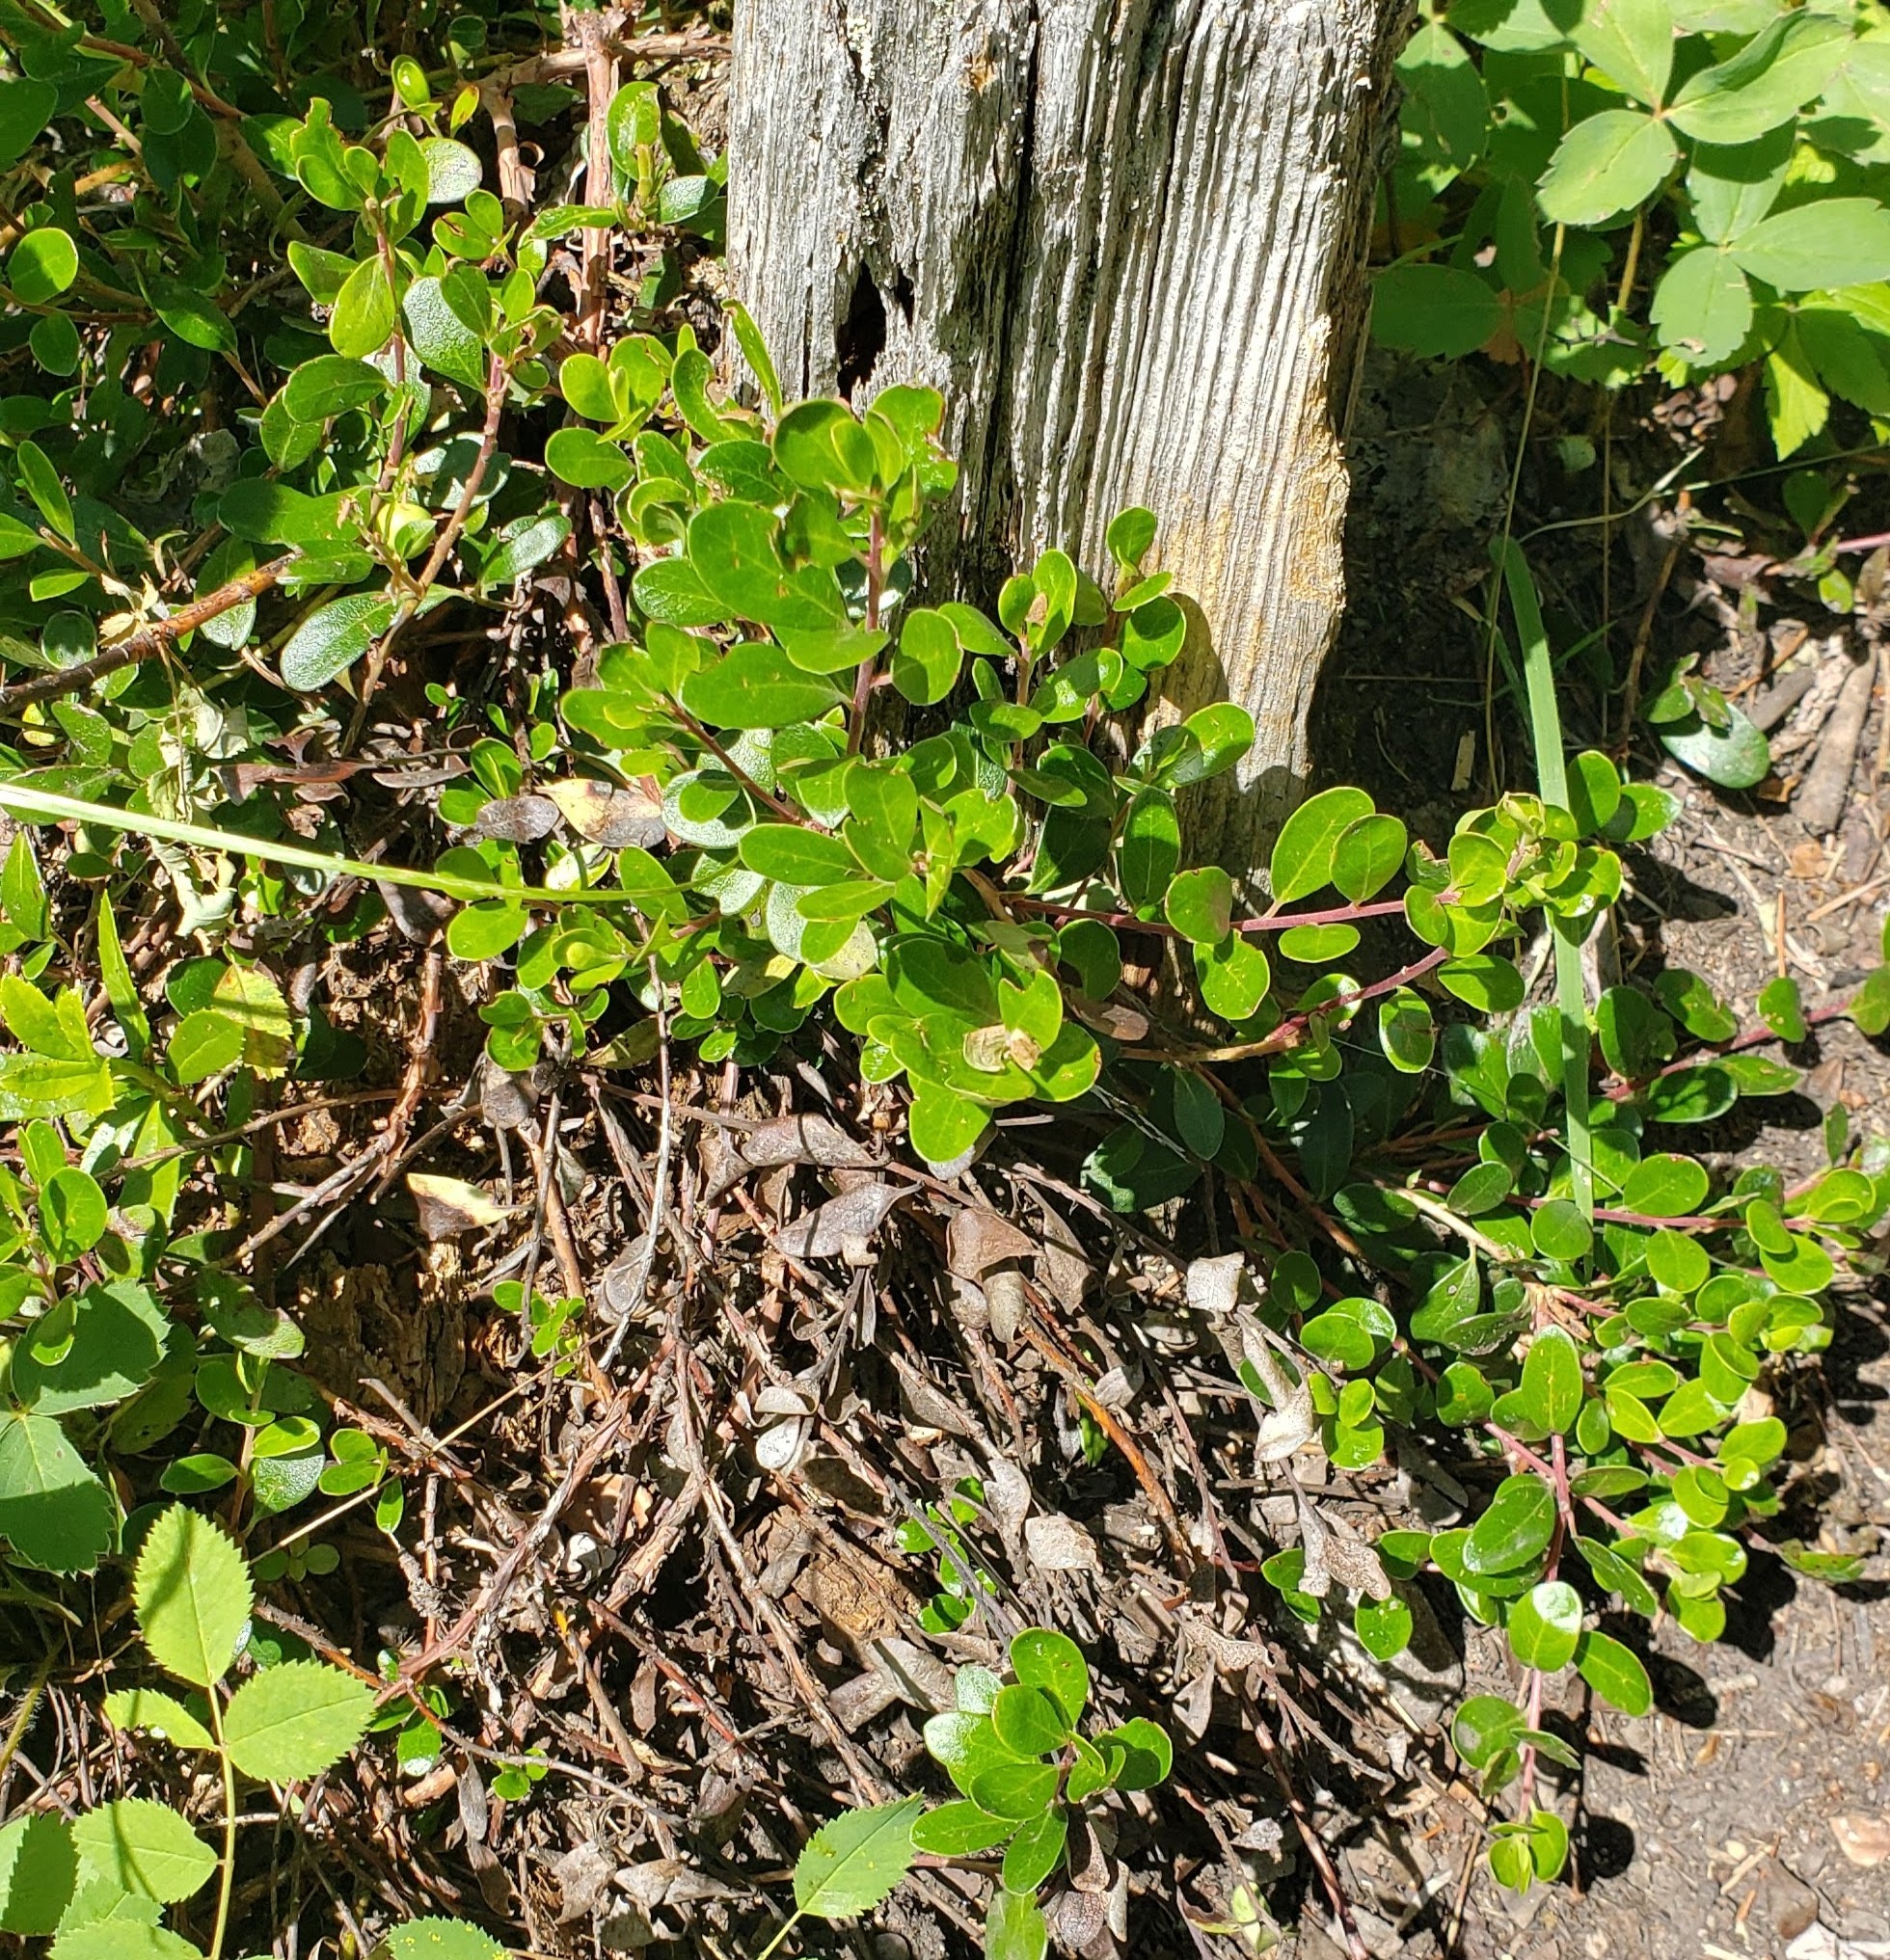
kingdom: Plantae
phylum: Tracheophyta
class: Magnoliopsida
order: Ericales
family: Ericaceae
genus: Arctostaphylos
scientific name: Arctostaphylos uva-ursi
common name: Bearberry
